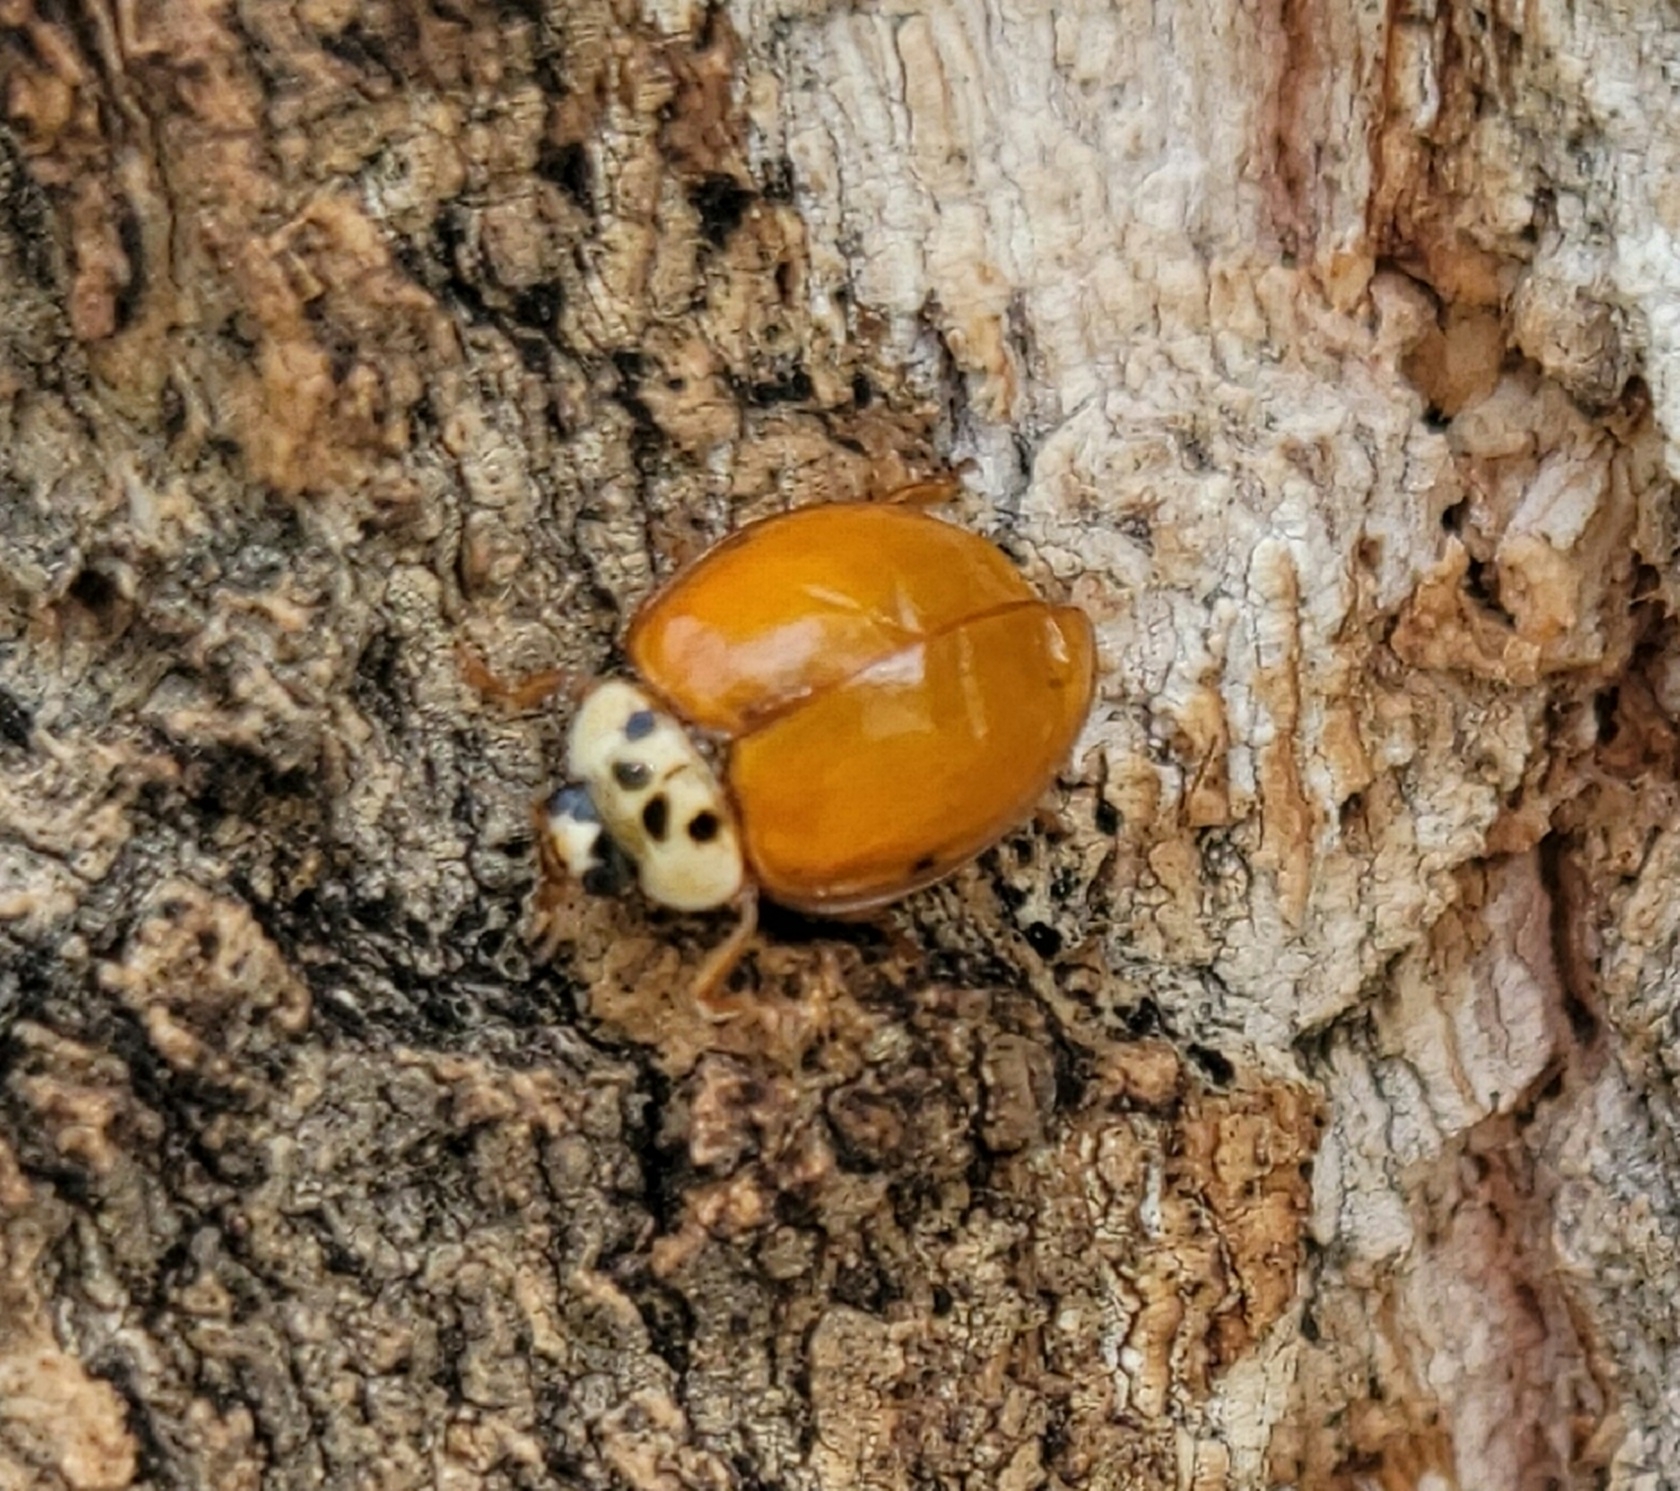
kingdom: Animalia
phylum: Arthropoda
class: Insecta
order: Coleoptera
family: Coccinellidae
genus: Harmonia
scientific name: Harmonia axyridis
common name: Harlequin ladybird
